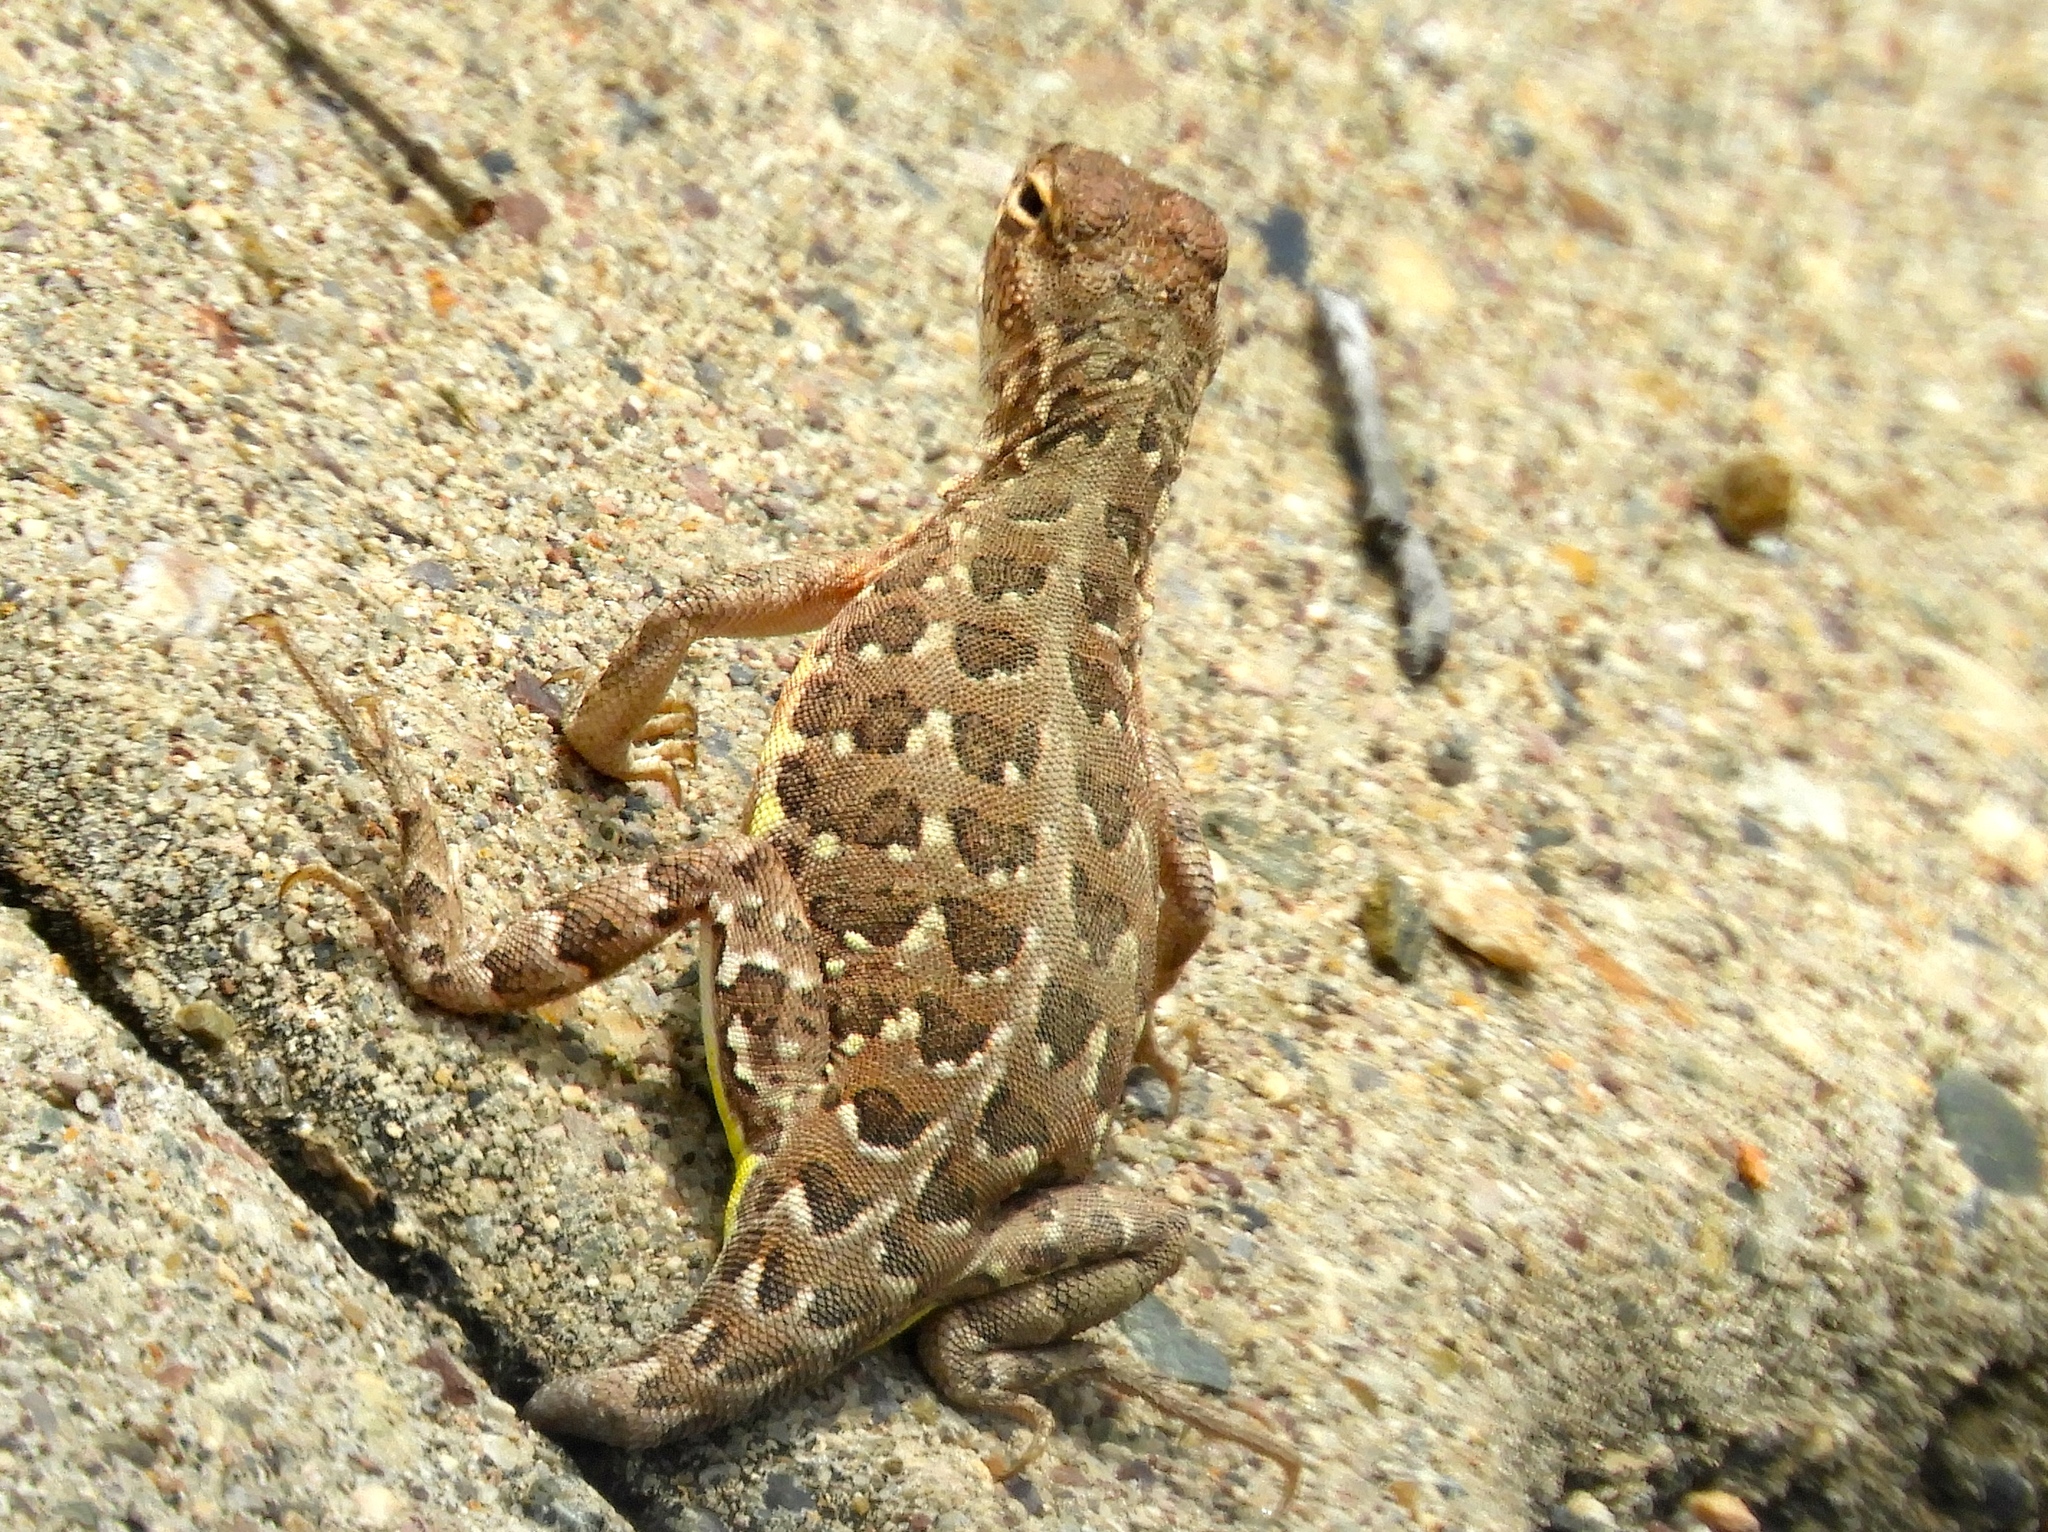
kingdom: Animalia
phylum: Chordata
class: Squamata
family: Phrynosomatidae
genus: Holbrookia
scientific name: Holbrookia elegans
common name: Elegant earless lizard
